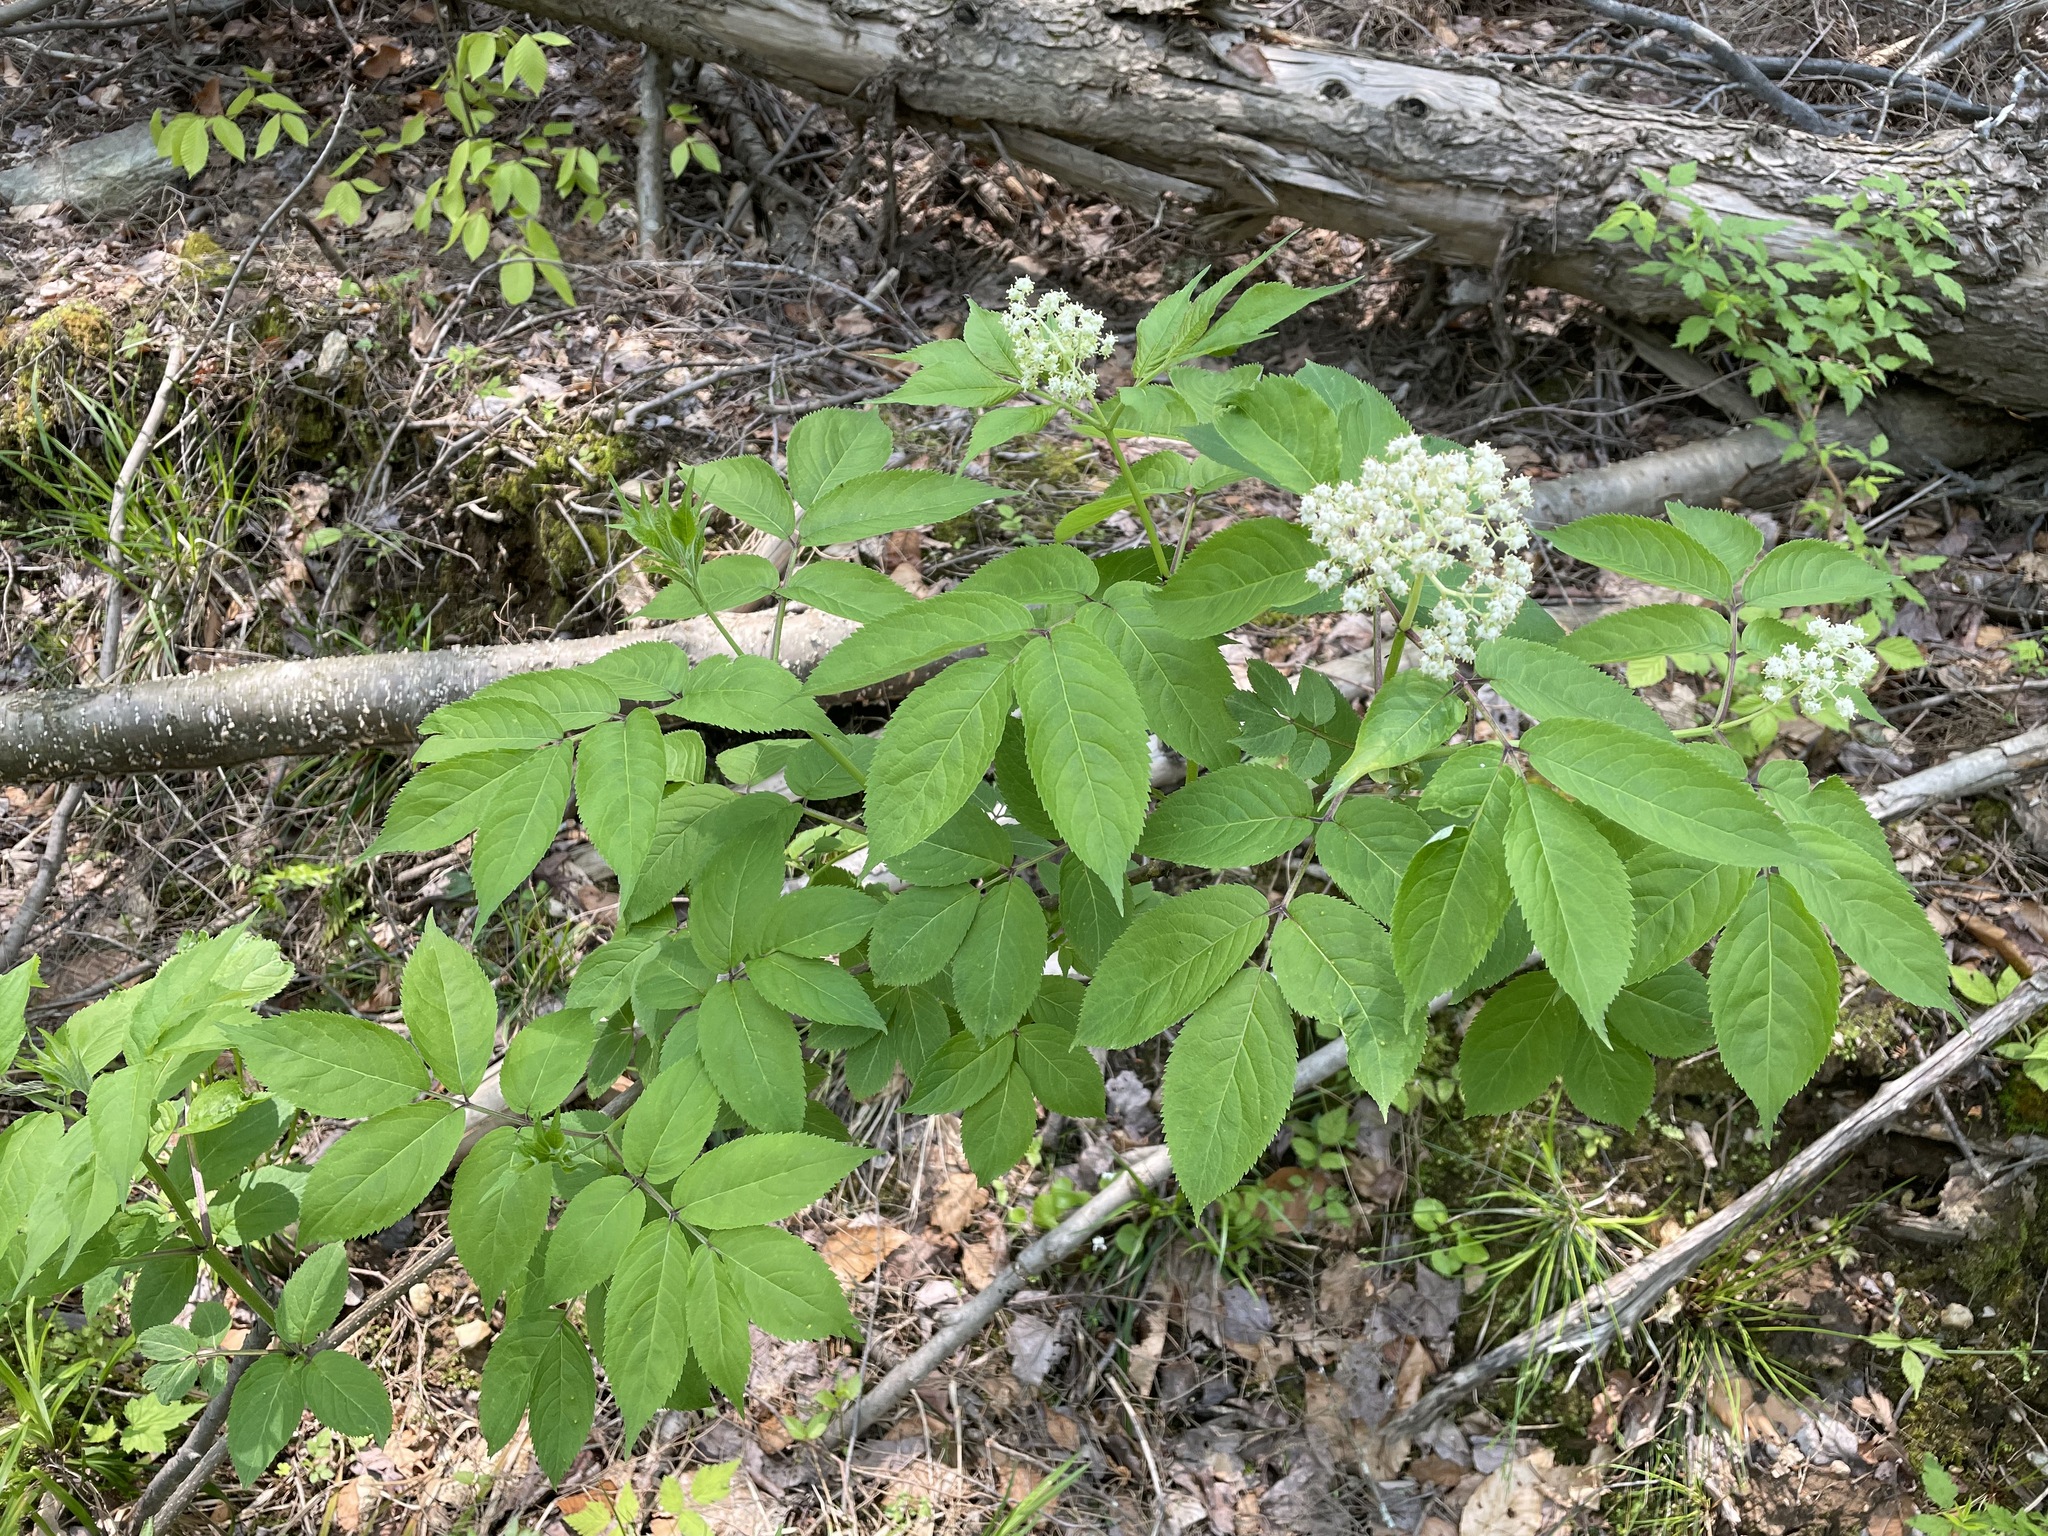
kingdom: Plantae
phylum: Tracheophyta
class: Magnoliopsida
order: Dipsacales
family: Viburnaceae
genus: Sambucus
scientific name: Sambucus racemosa
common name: Red-berried elder
